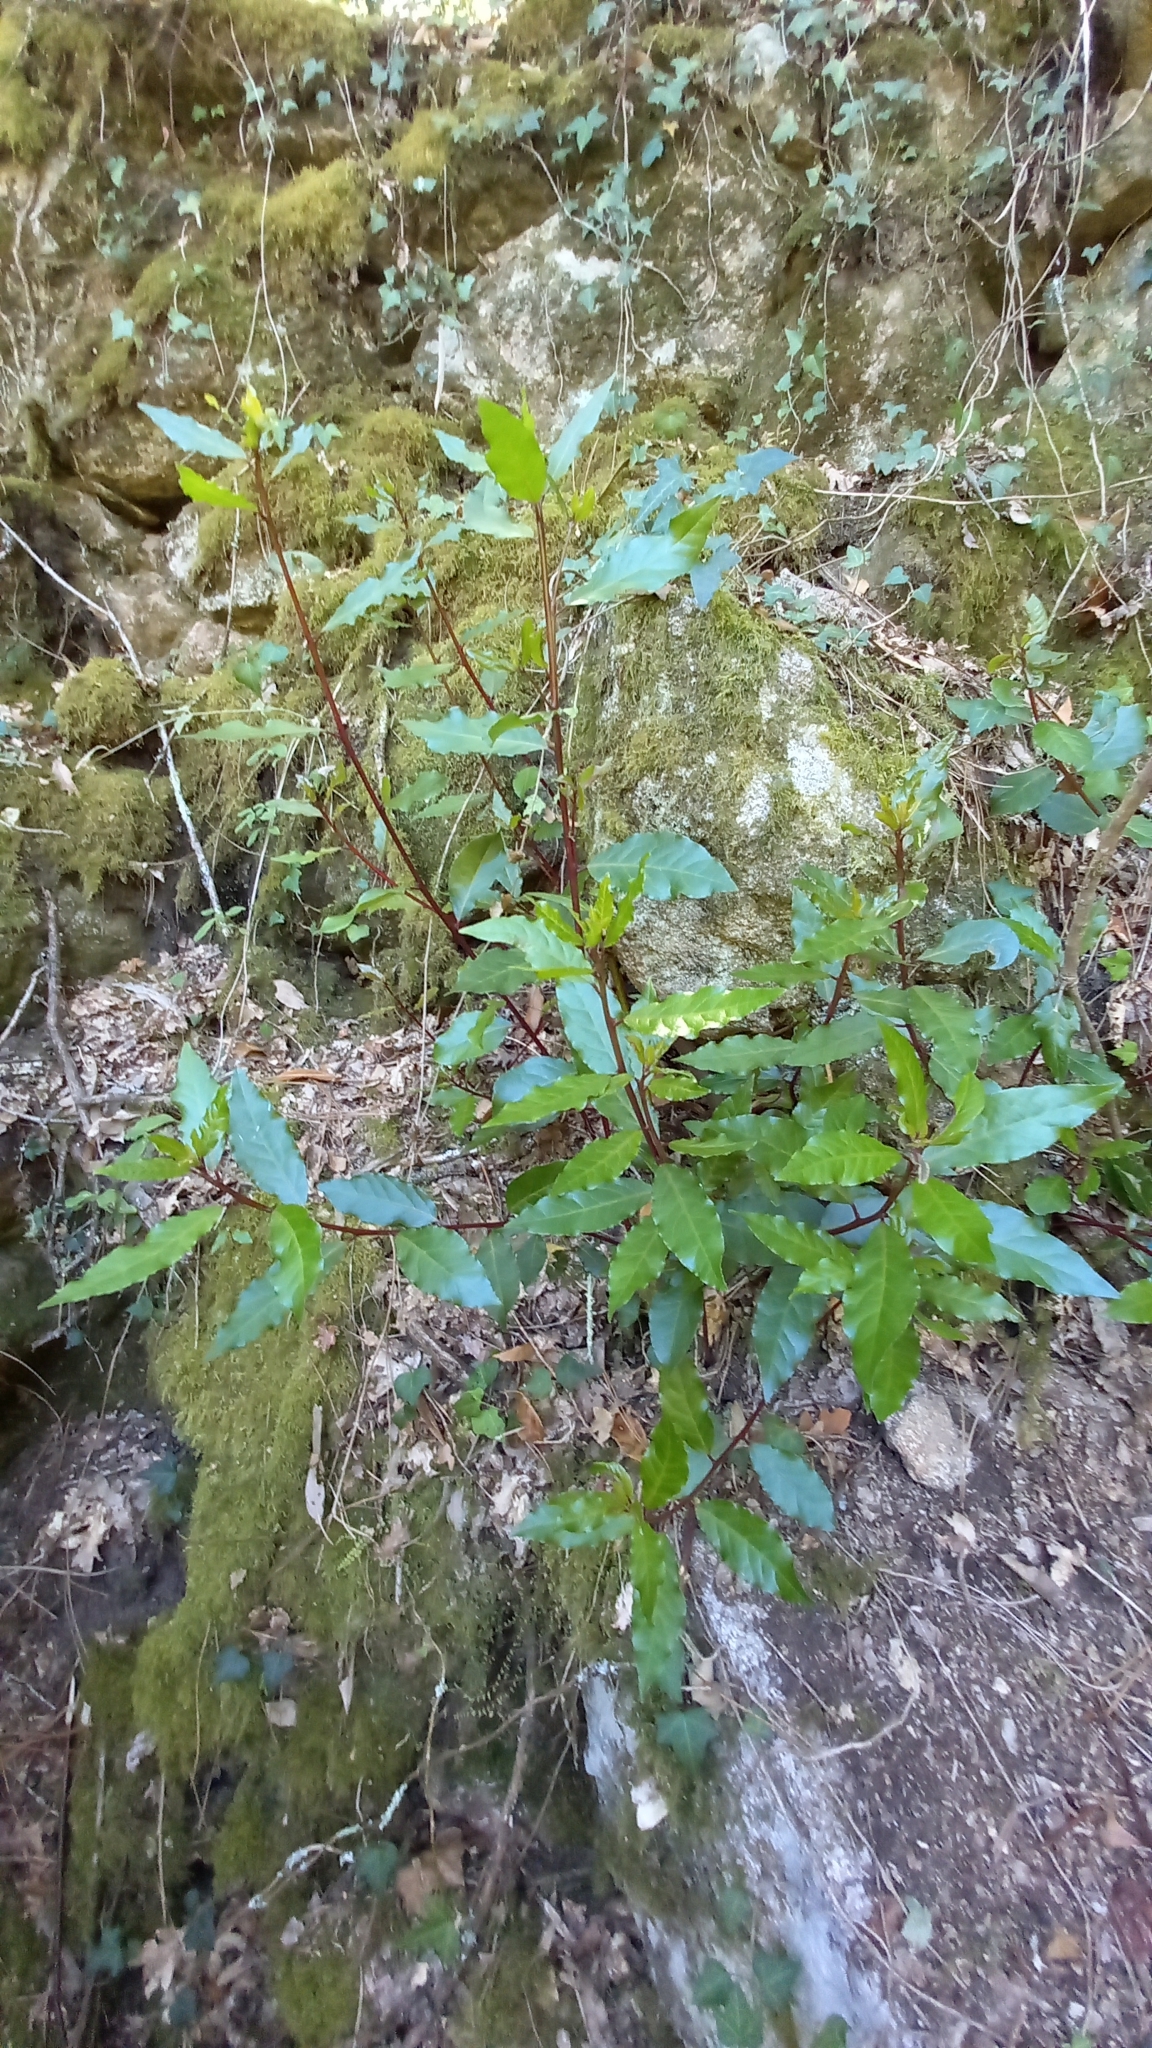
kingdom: Plantae
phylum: Tracheophyta
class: Magnoliopsida
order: Laurales
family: Lauraceae
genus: Laurus
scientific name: Laurus nobilis
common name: Bay
